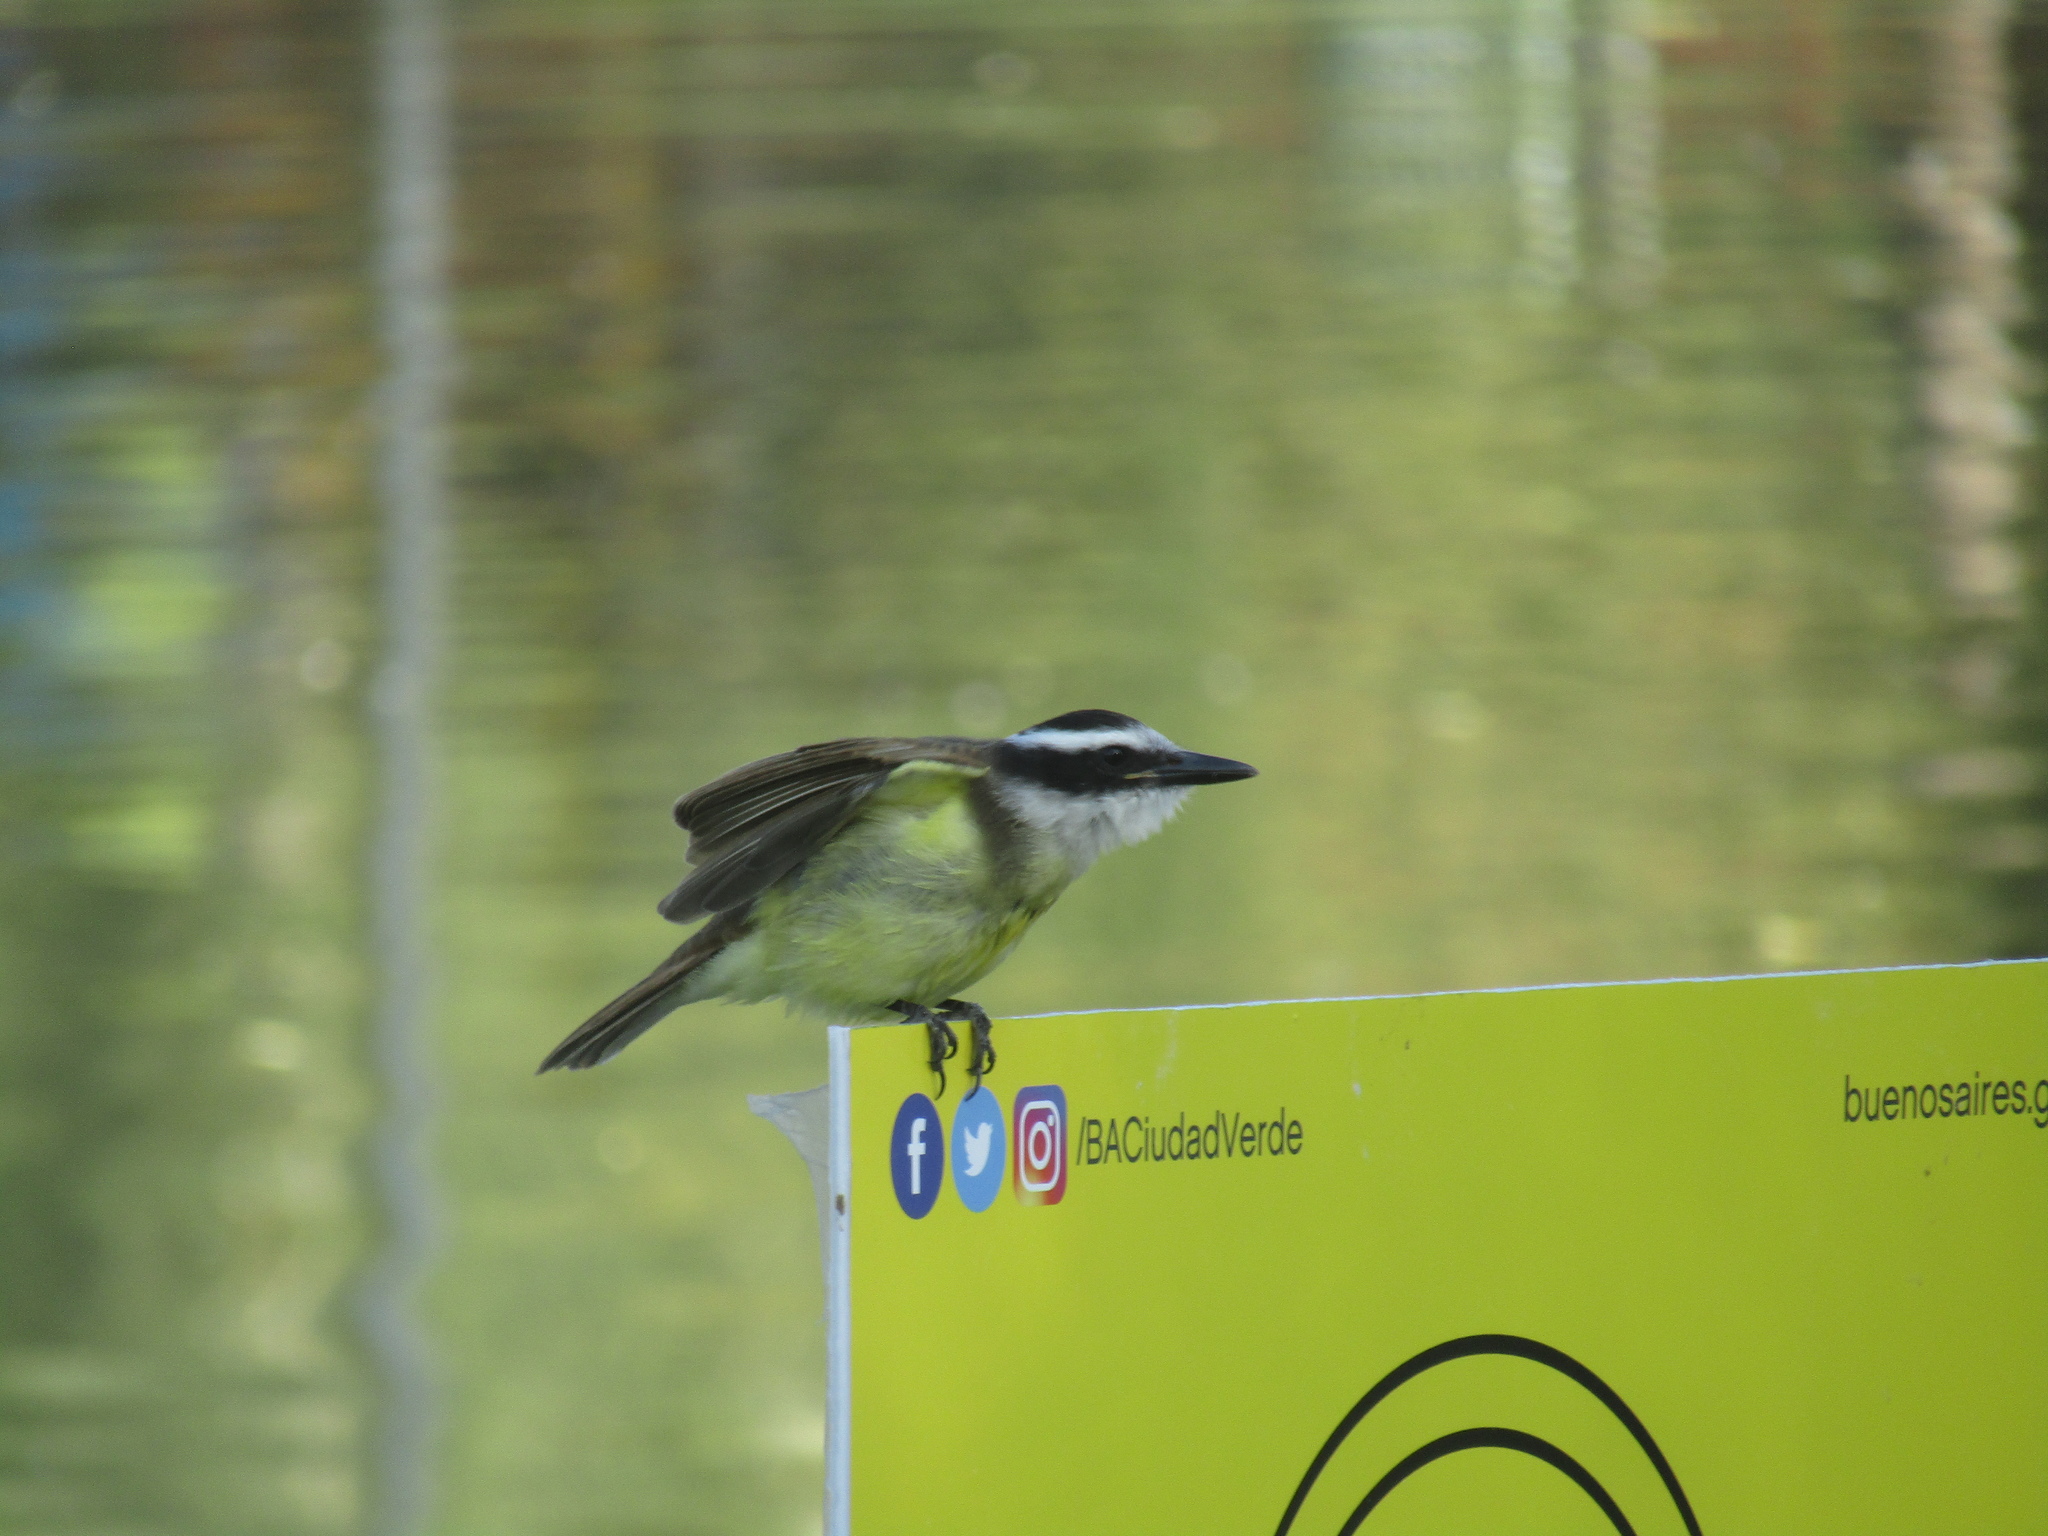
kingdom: Animalia
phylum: Chordata
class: Aves
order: Passeriformes
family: Tyrannidae
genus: Pitangus
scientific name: Pitangus sulphuratus
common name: Great kiskadee
